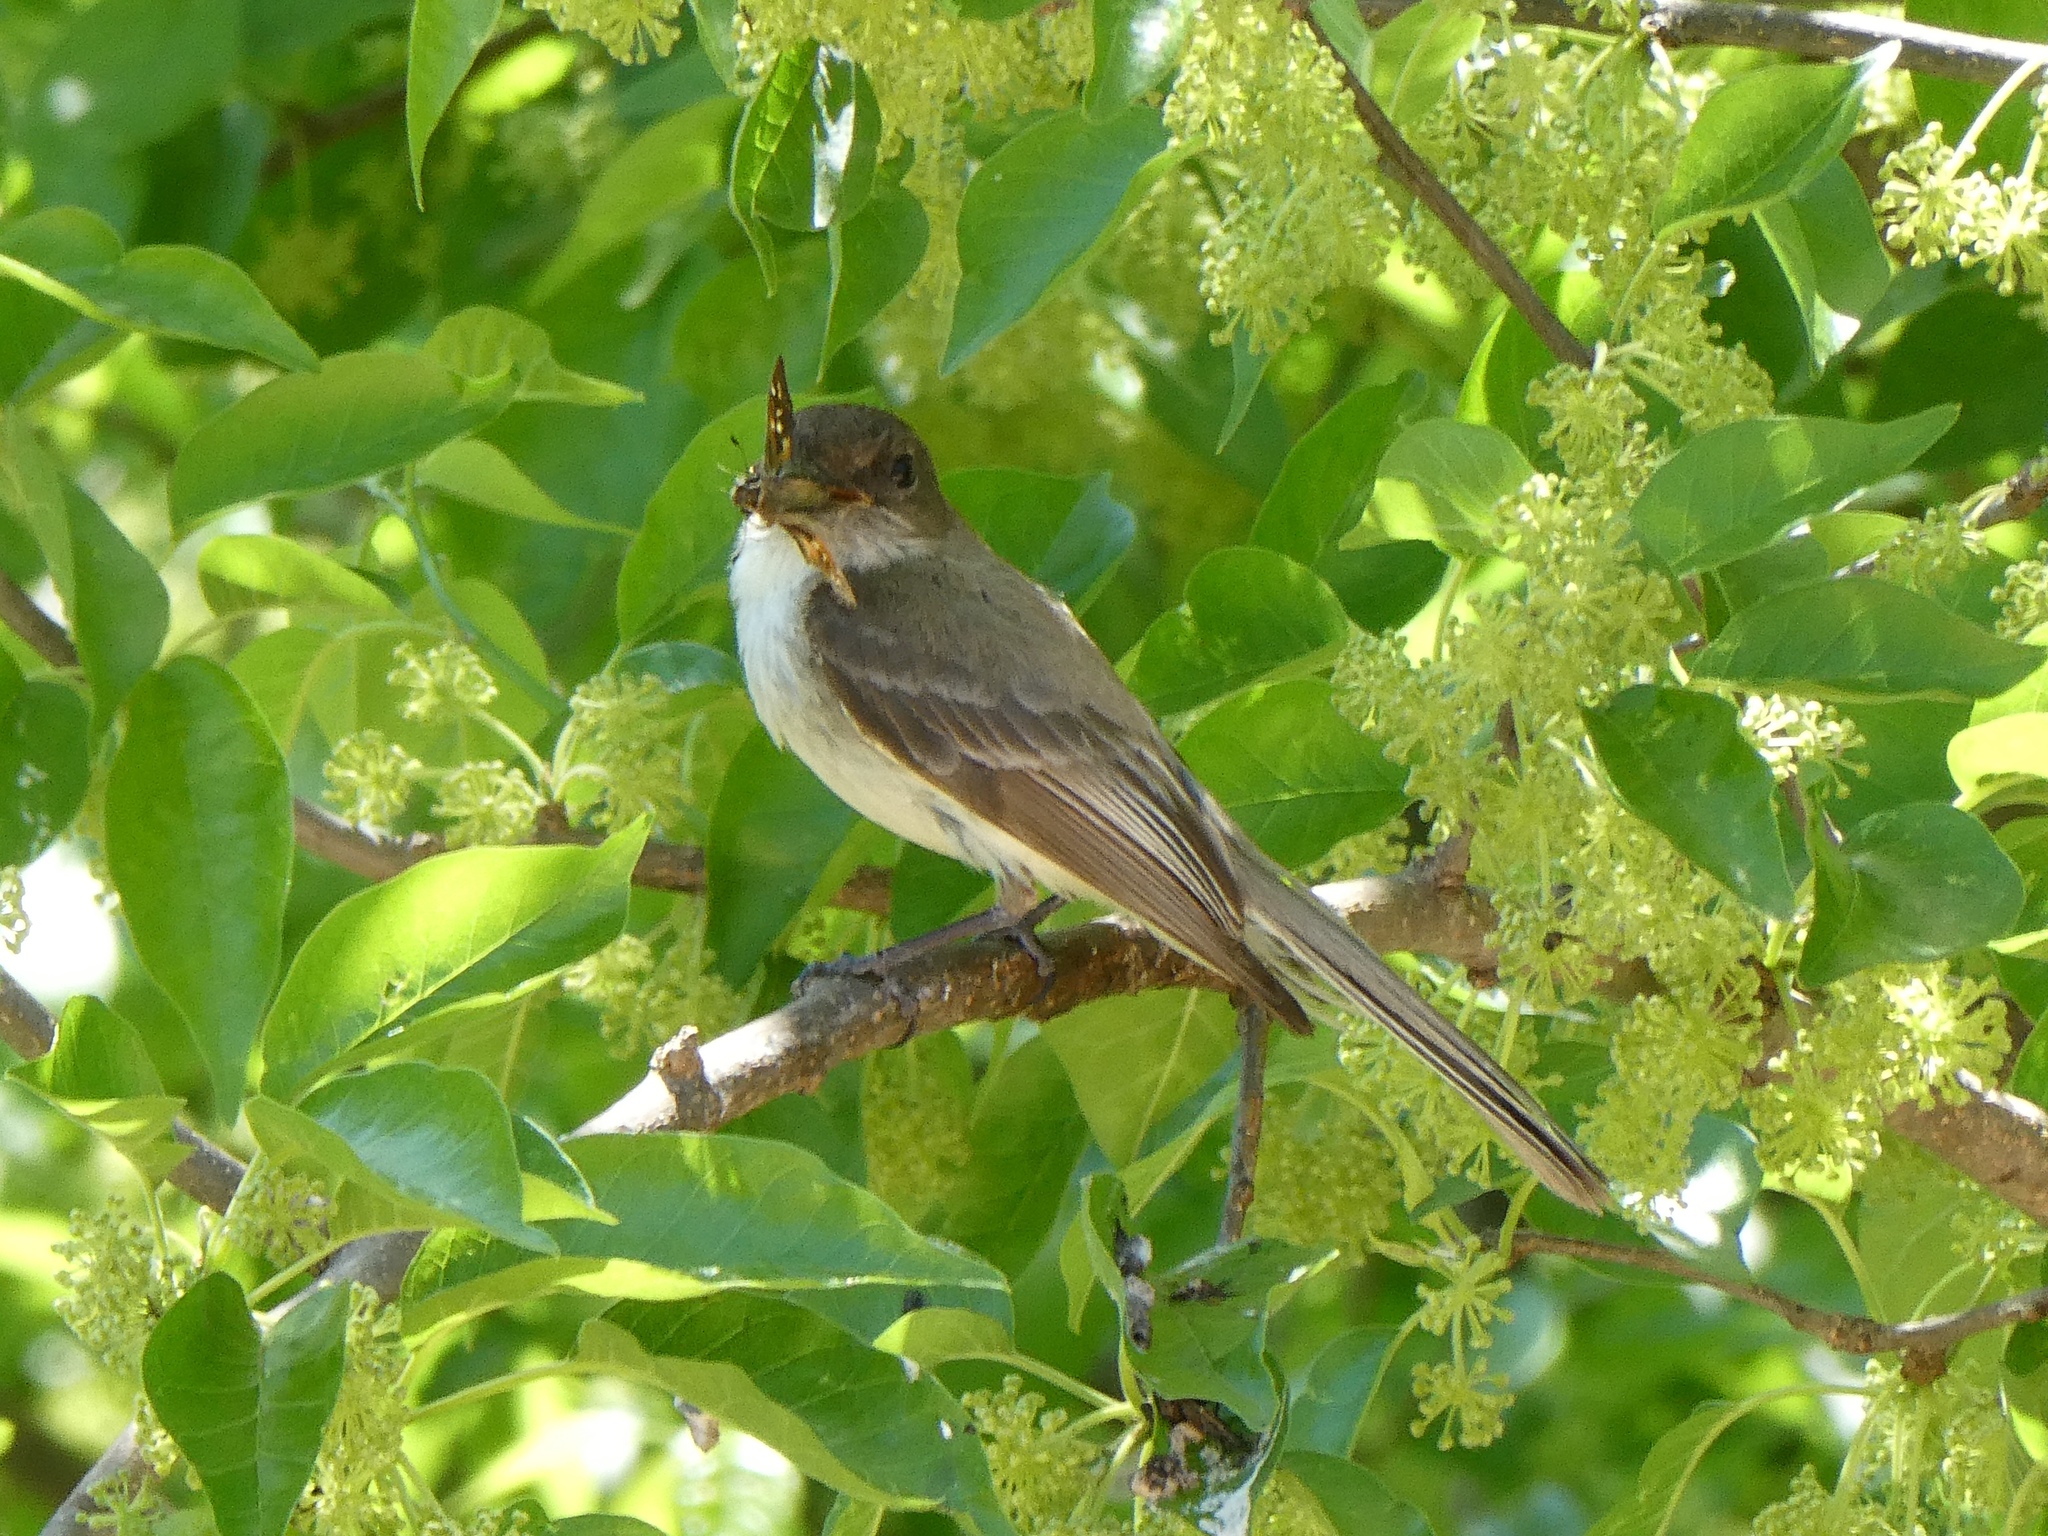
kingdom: Animalia
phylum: Chordata
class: Aves
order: Passeriformes
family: Tyrannidae
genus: Sayornis
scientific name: Sayornis phoebe
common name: Eastern phoebe
